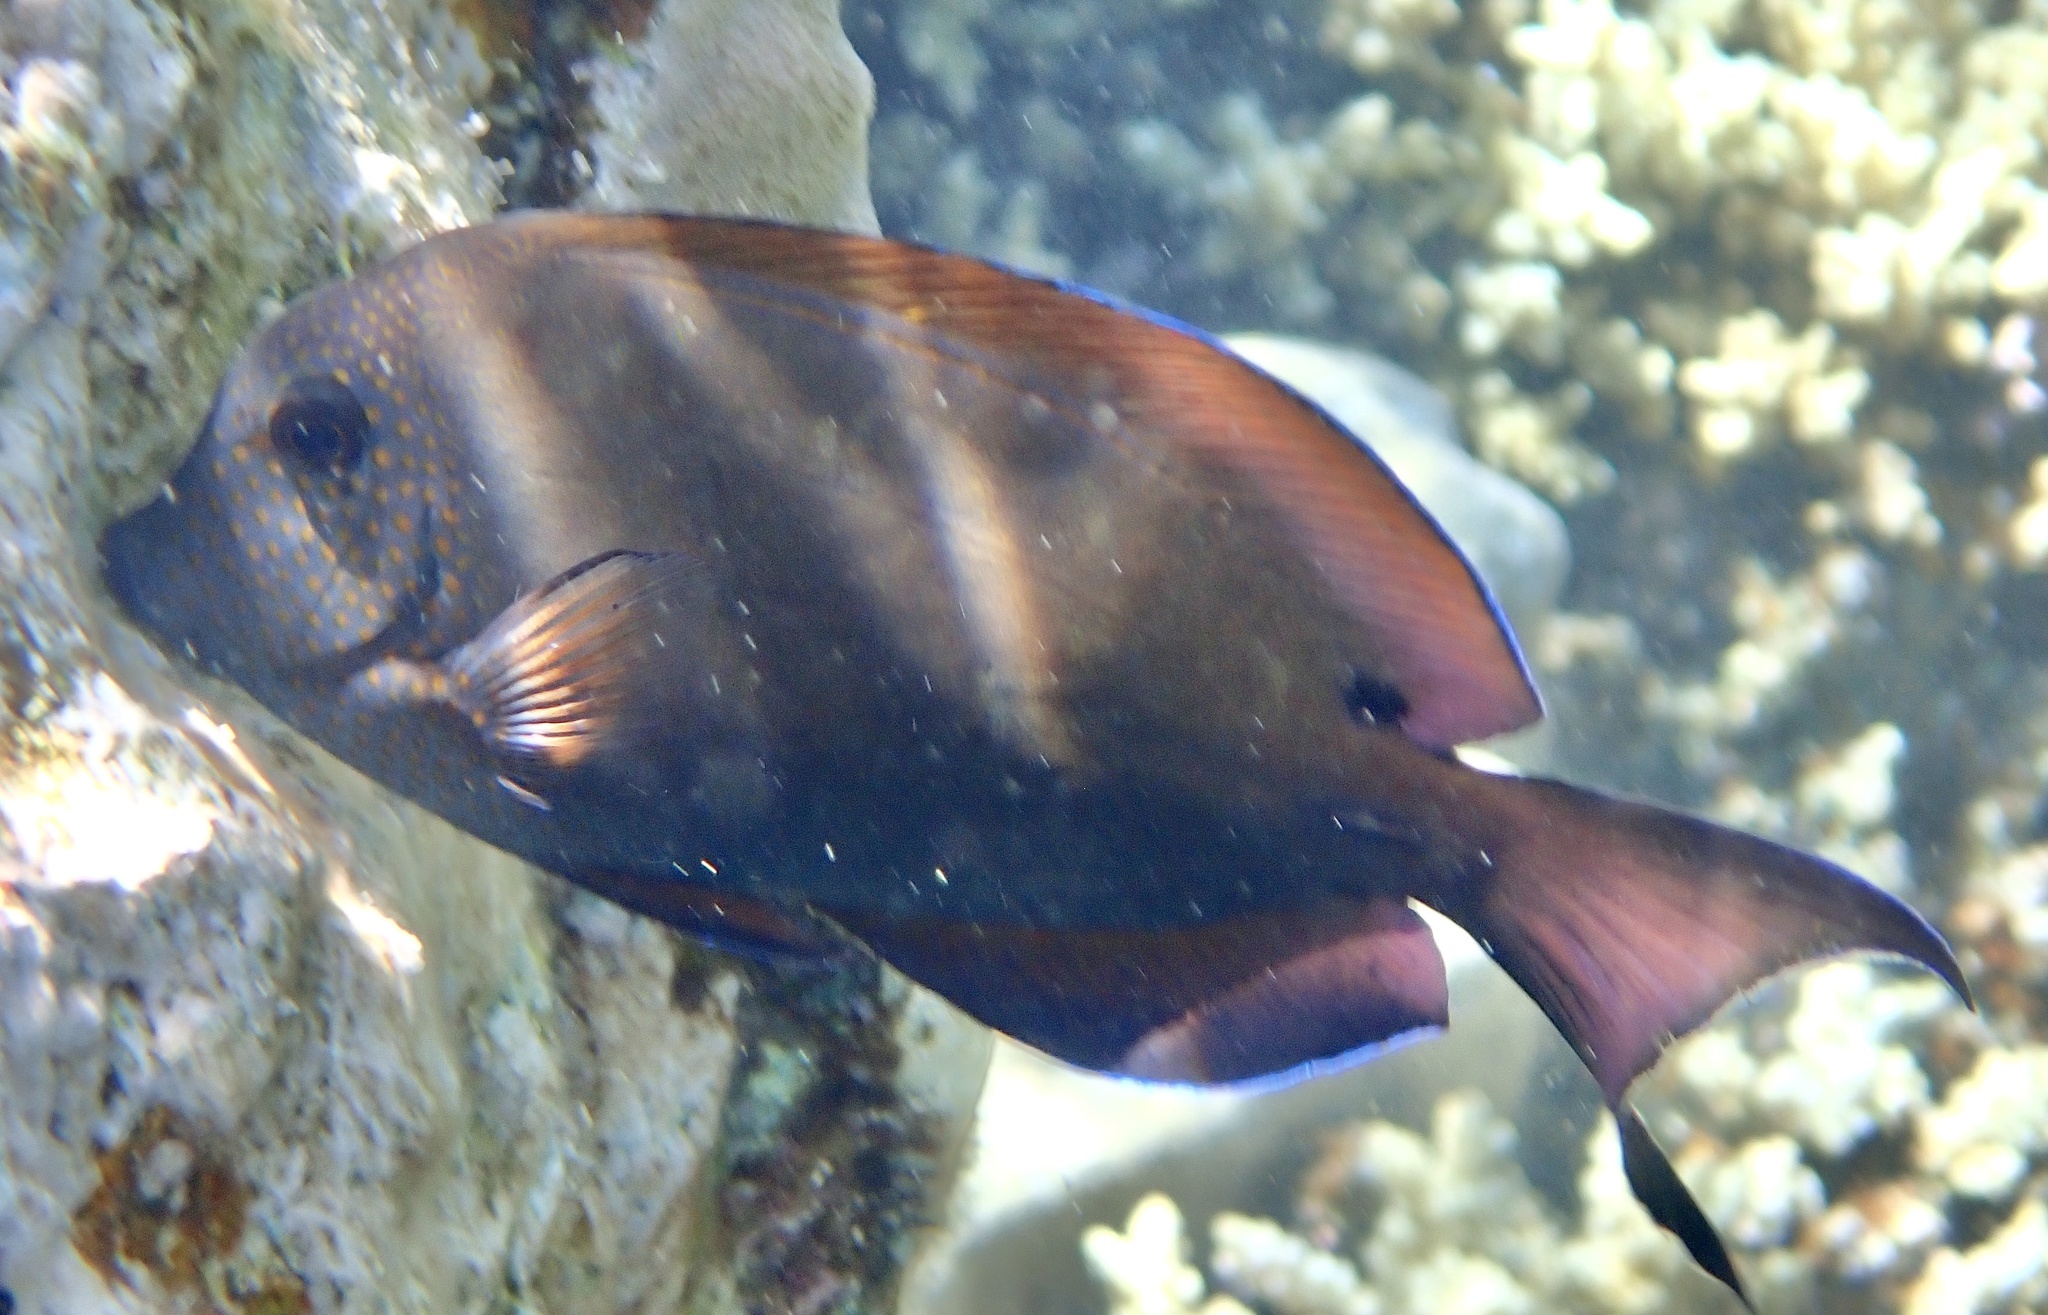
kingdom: Animalia
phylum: Chordata
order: Perciformes
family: Acanthuridae
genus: Acanthurus
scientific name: Acanthurus nigrofuscus
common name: Blackspot surgeonfish
